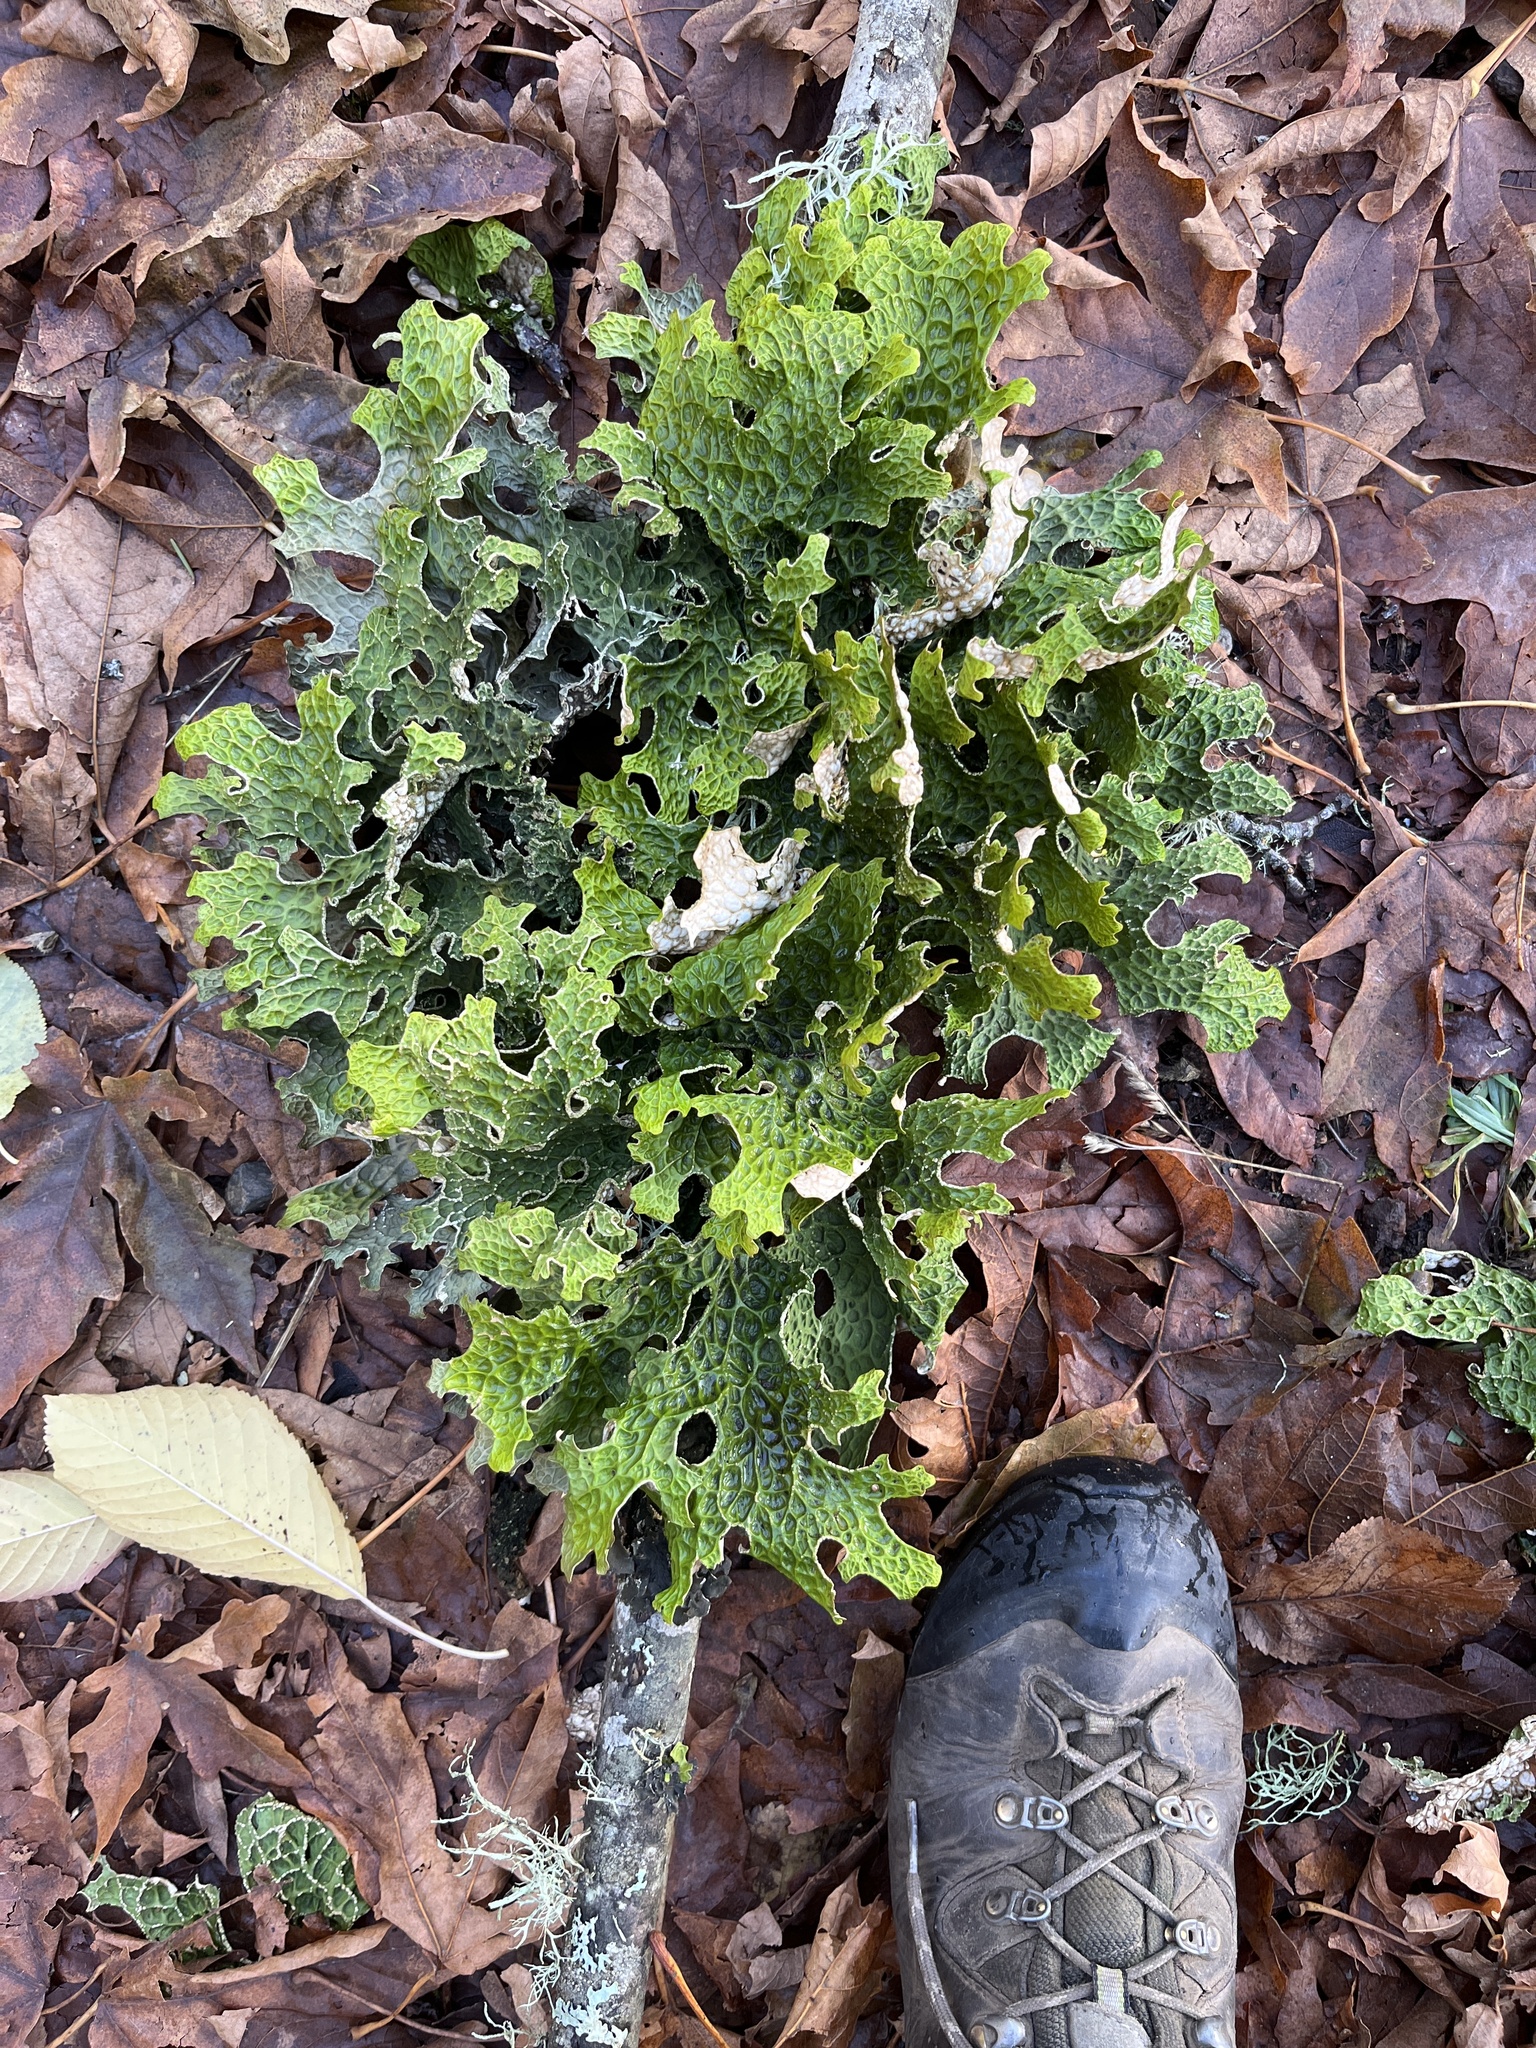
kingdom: Fungi
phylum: Ascomycota
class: Lecanoromycetes
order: Peltigerales
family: Lobariaceae
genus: Lobaria
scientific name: Lobaria pulmonaria
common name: Lungwort
